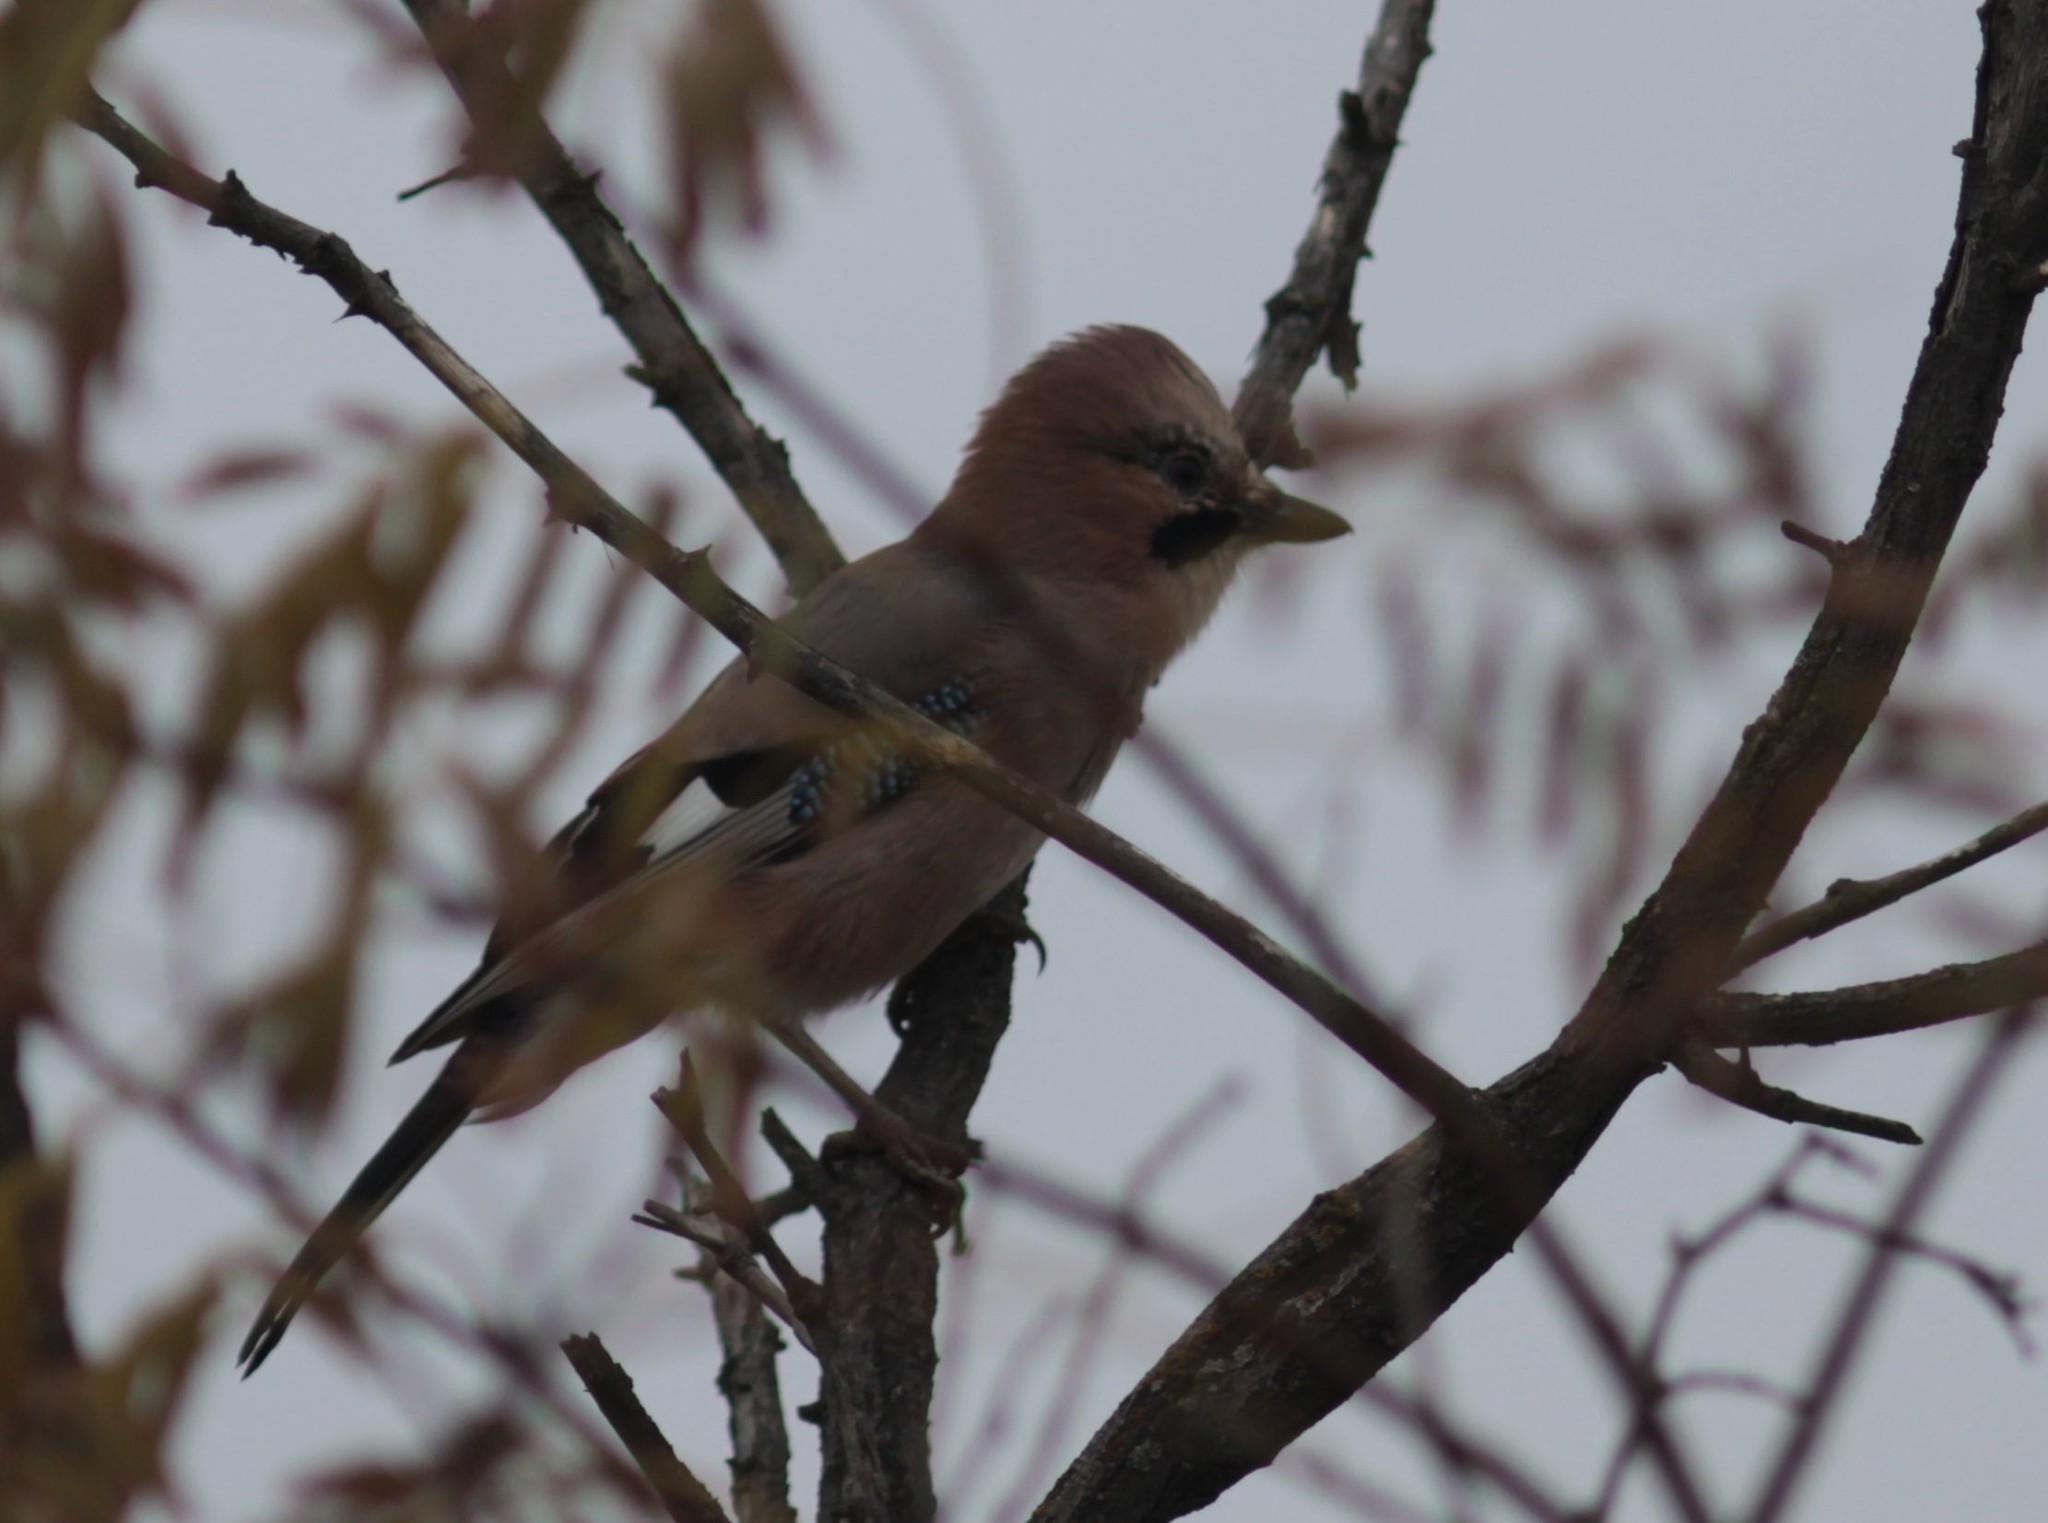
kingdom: Animalia
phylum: Chordata
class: Aves
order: Passeriformes
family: Corvidae
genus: Garrulus
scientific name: Garrulus glandarius
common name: Eurasian jay
